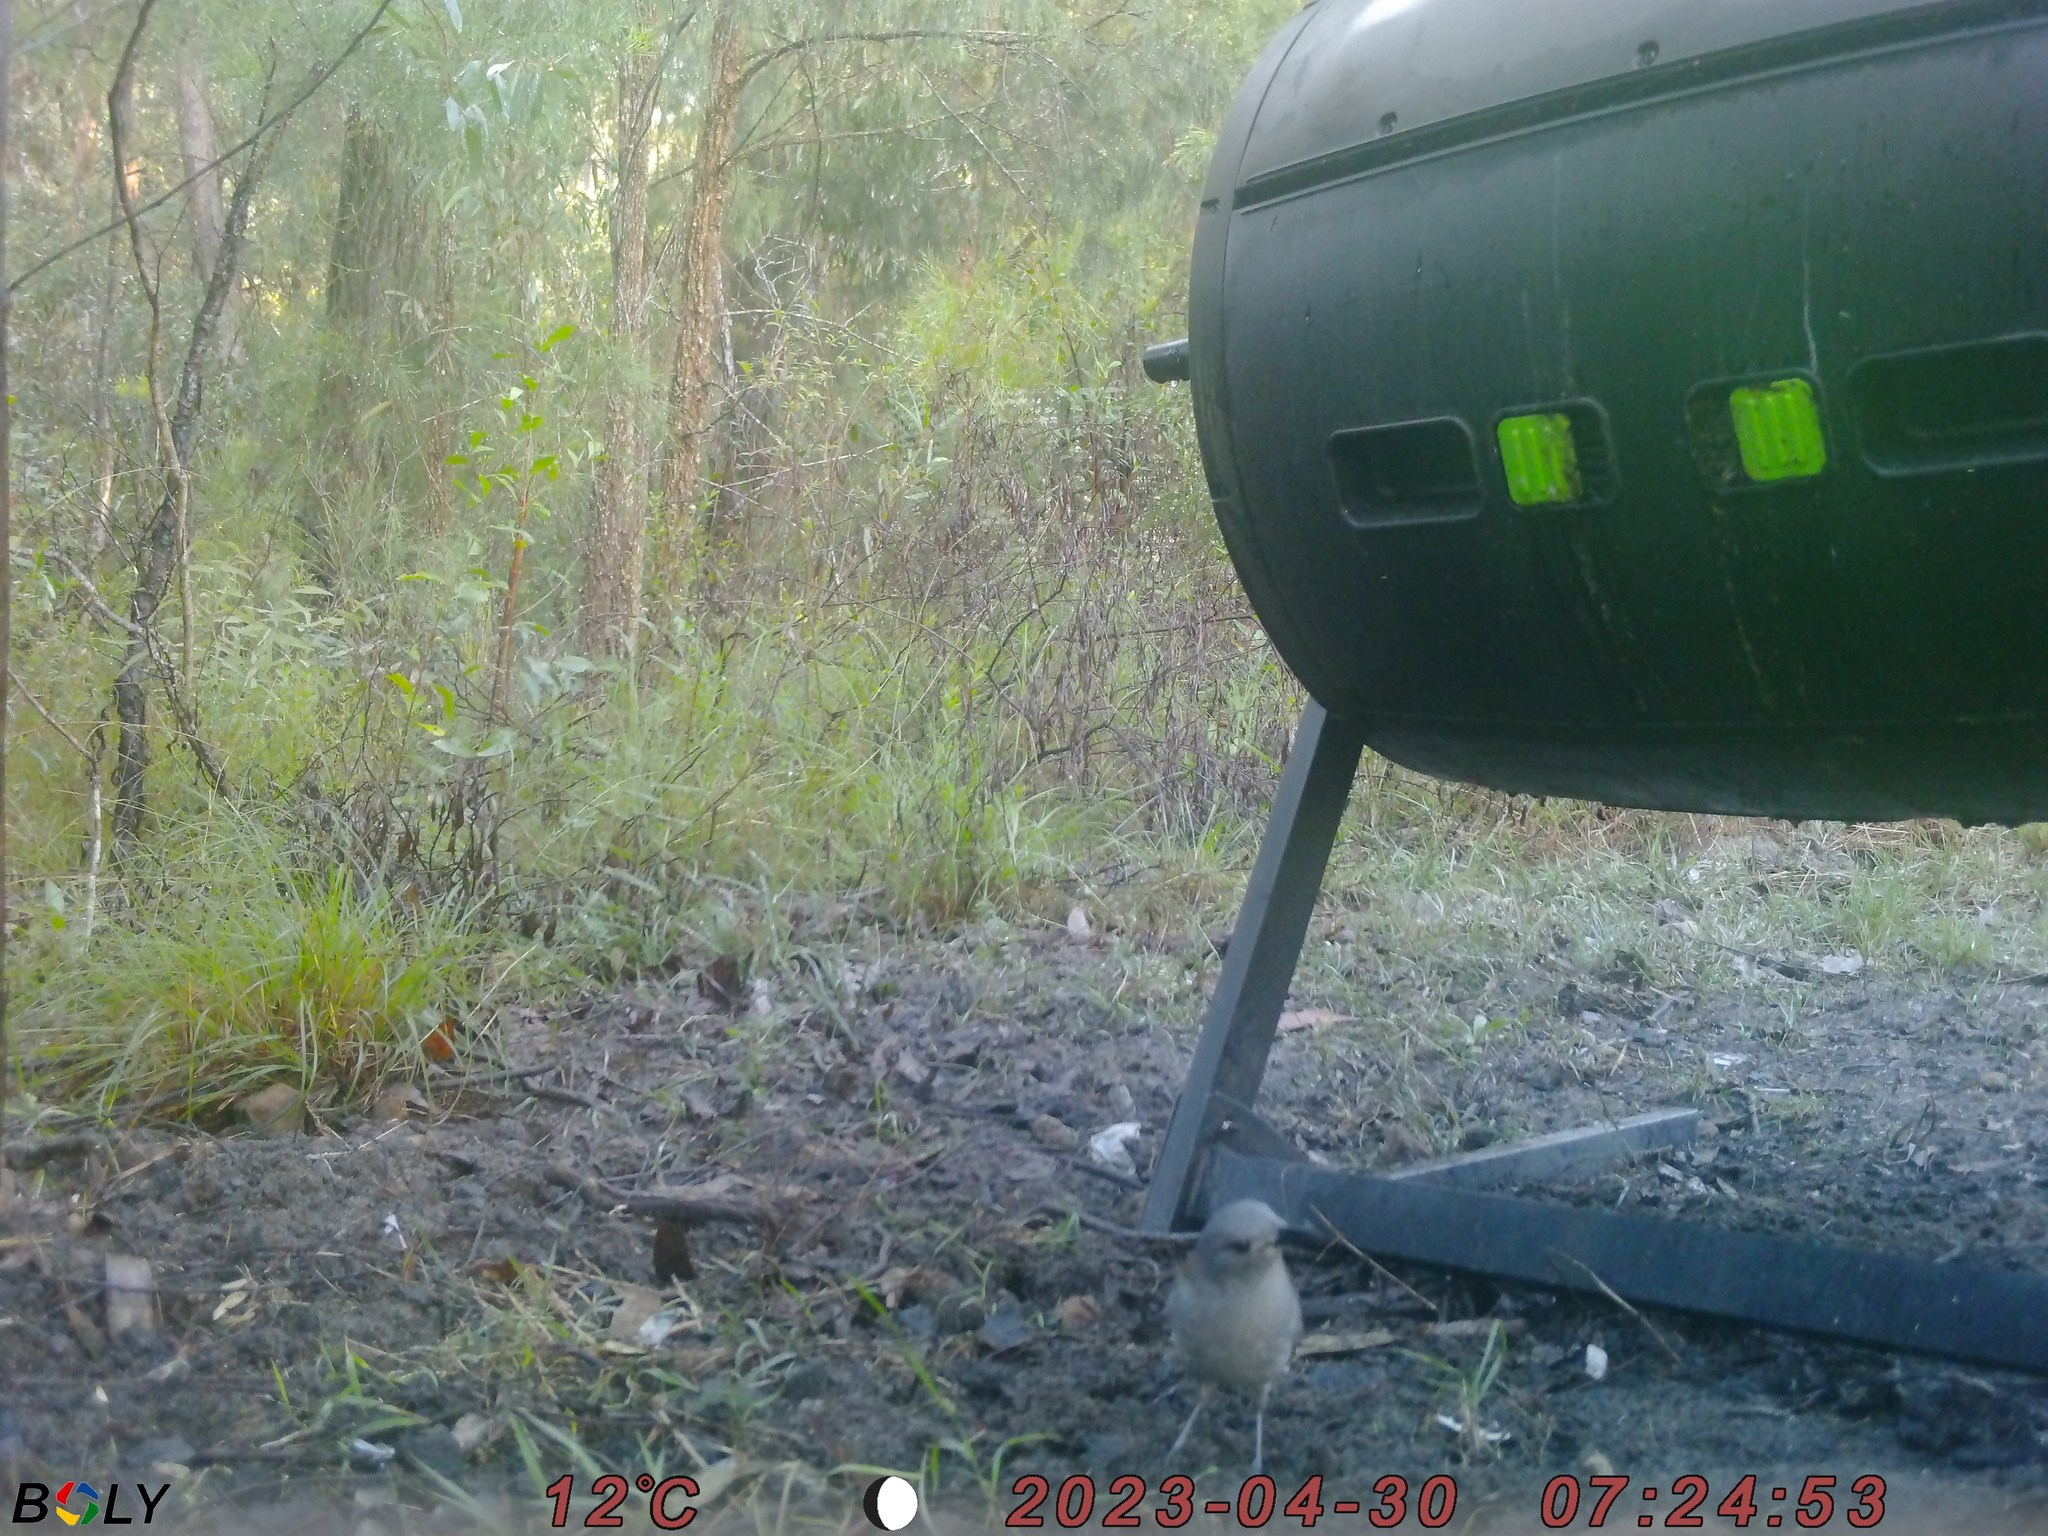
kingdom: Animalia
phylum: Chordata
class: Aves
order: Passeriformes
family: Pachycephalidae
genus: Colluricincla
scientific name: Colluricincla harmonica
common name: Grey shrikethrush
